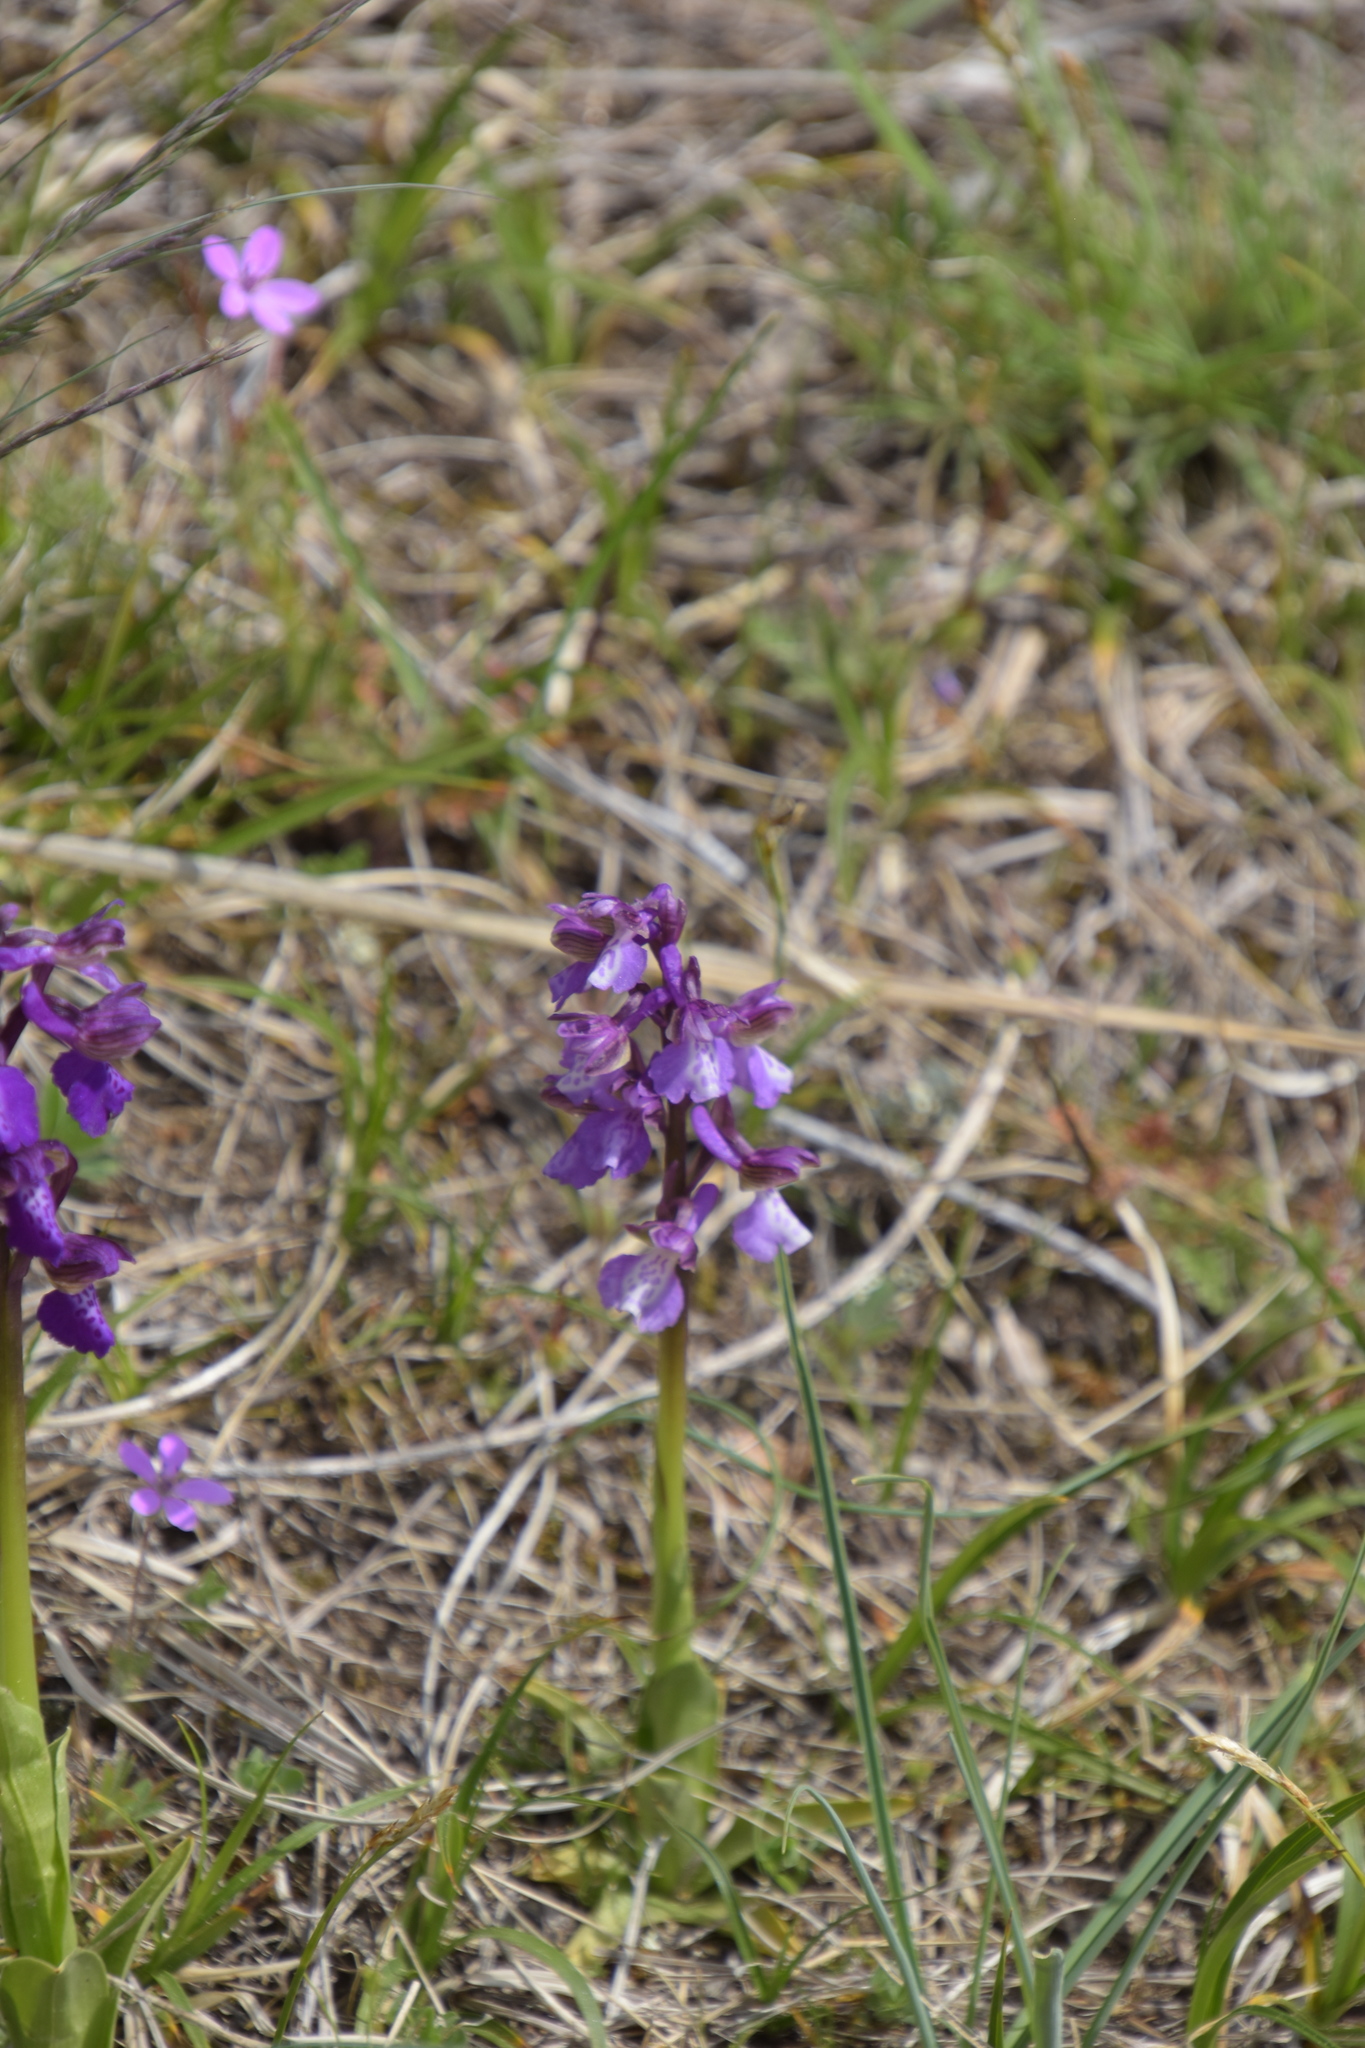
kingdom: Plantae
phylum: Tracheophyta
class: Liliopsida
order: Asparagales
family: Orchidaceae
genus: Anacamptis
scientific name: Anacamptis morio
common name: Green-winged orchid
